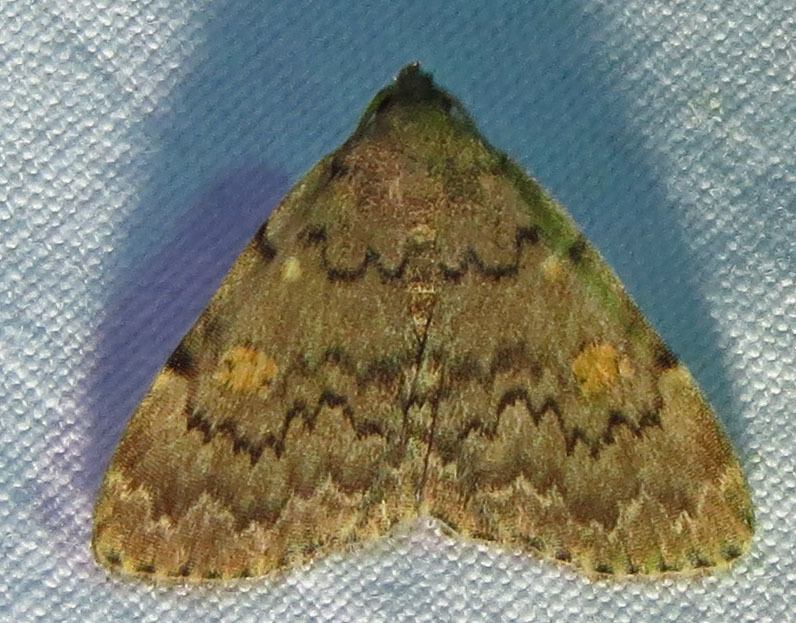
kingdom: Animalia
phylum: Arthropoda
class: Insecta
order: Lepidoptera
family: Erebidae
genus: Idia
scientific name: Idia aemula
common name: Common idia moth
